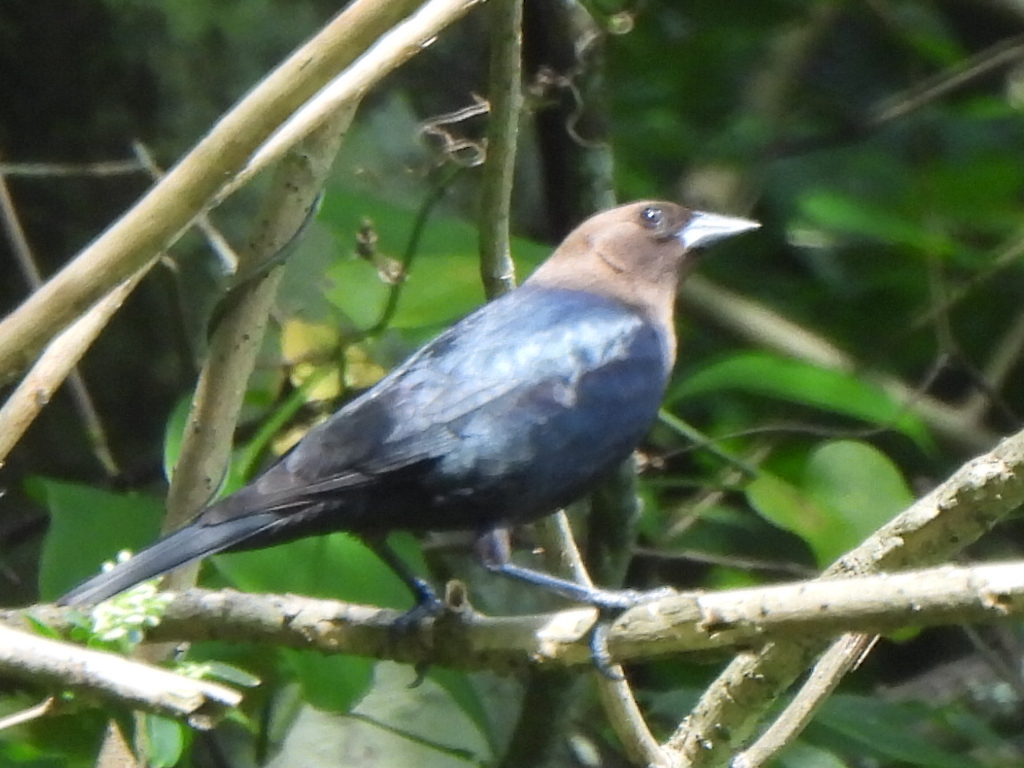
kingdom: Animalia
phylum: Chordata
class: Aves
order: Passeriformes
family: Icteridae
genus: Molothrus
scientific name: Molothrus ater
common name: Brown-headed cowbird
